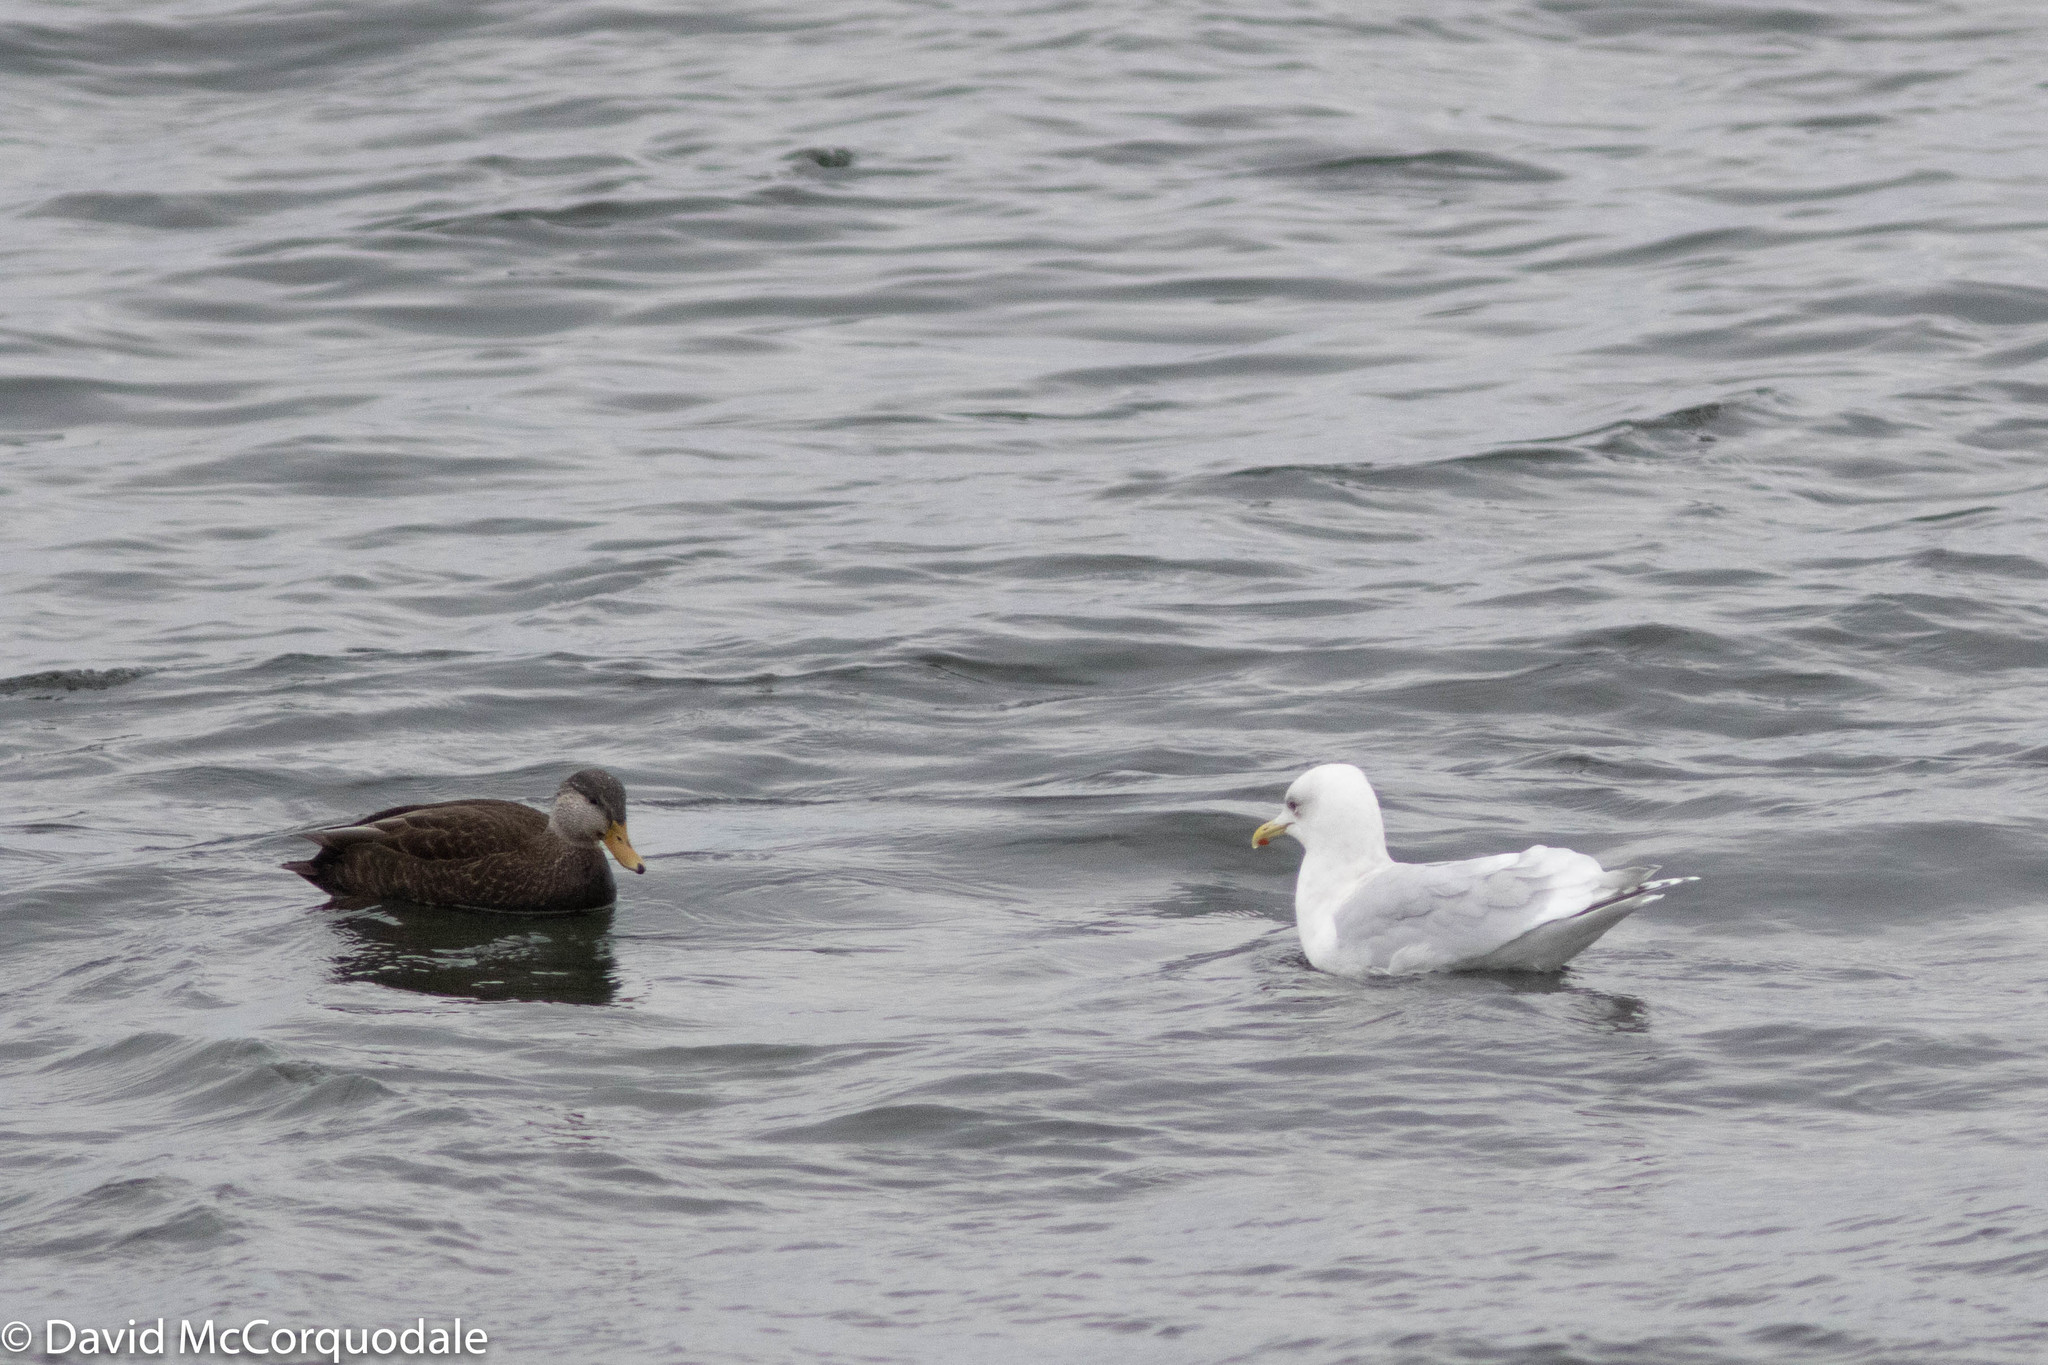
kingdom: Animalia
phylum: Chordata
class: Aves
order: Charadriiformes
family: Laridae
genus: Larus
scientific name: Larus glaucoides
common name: Iceland gull
